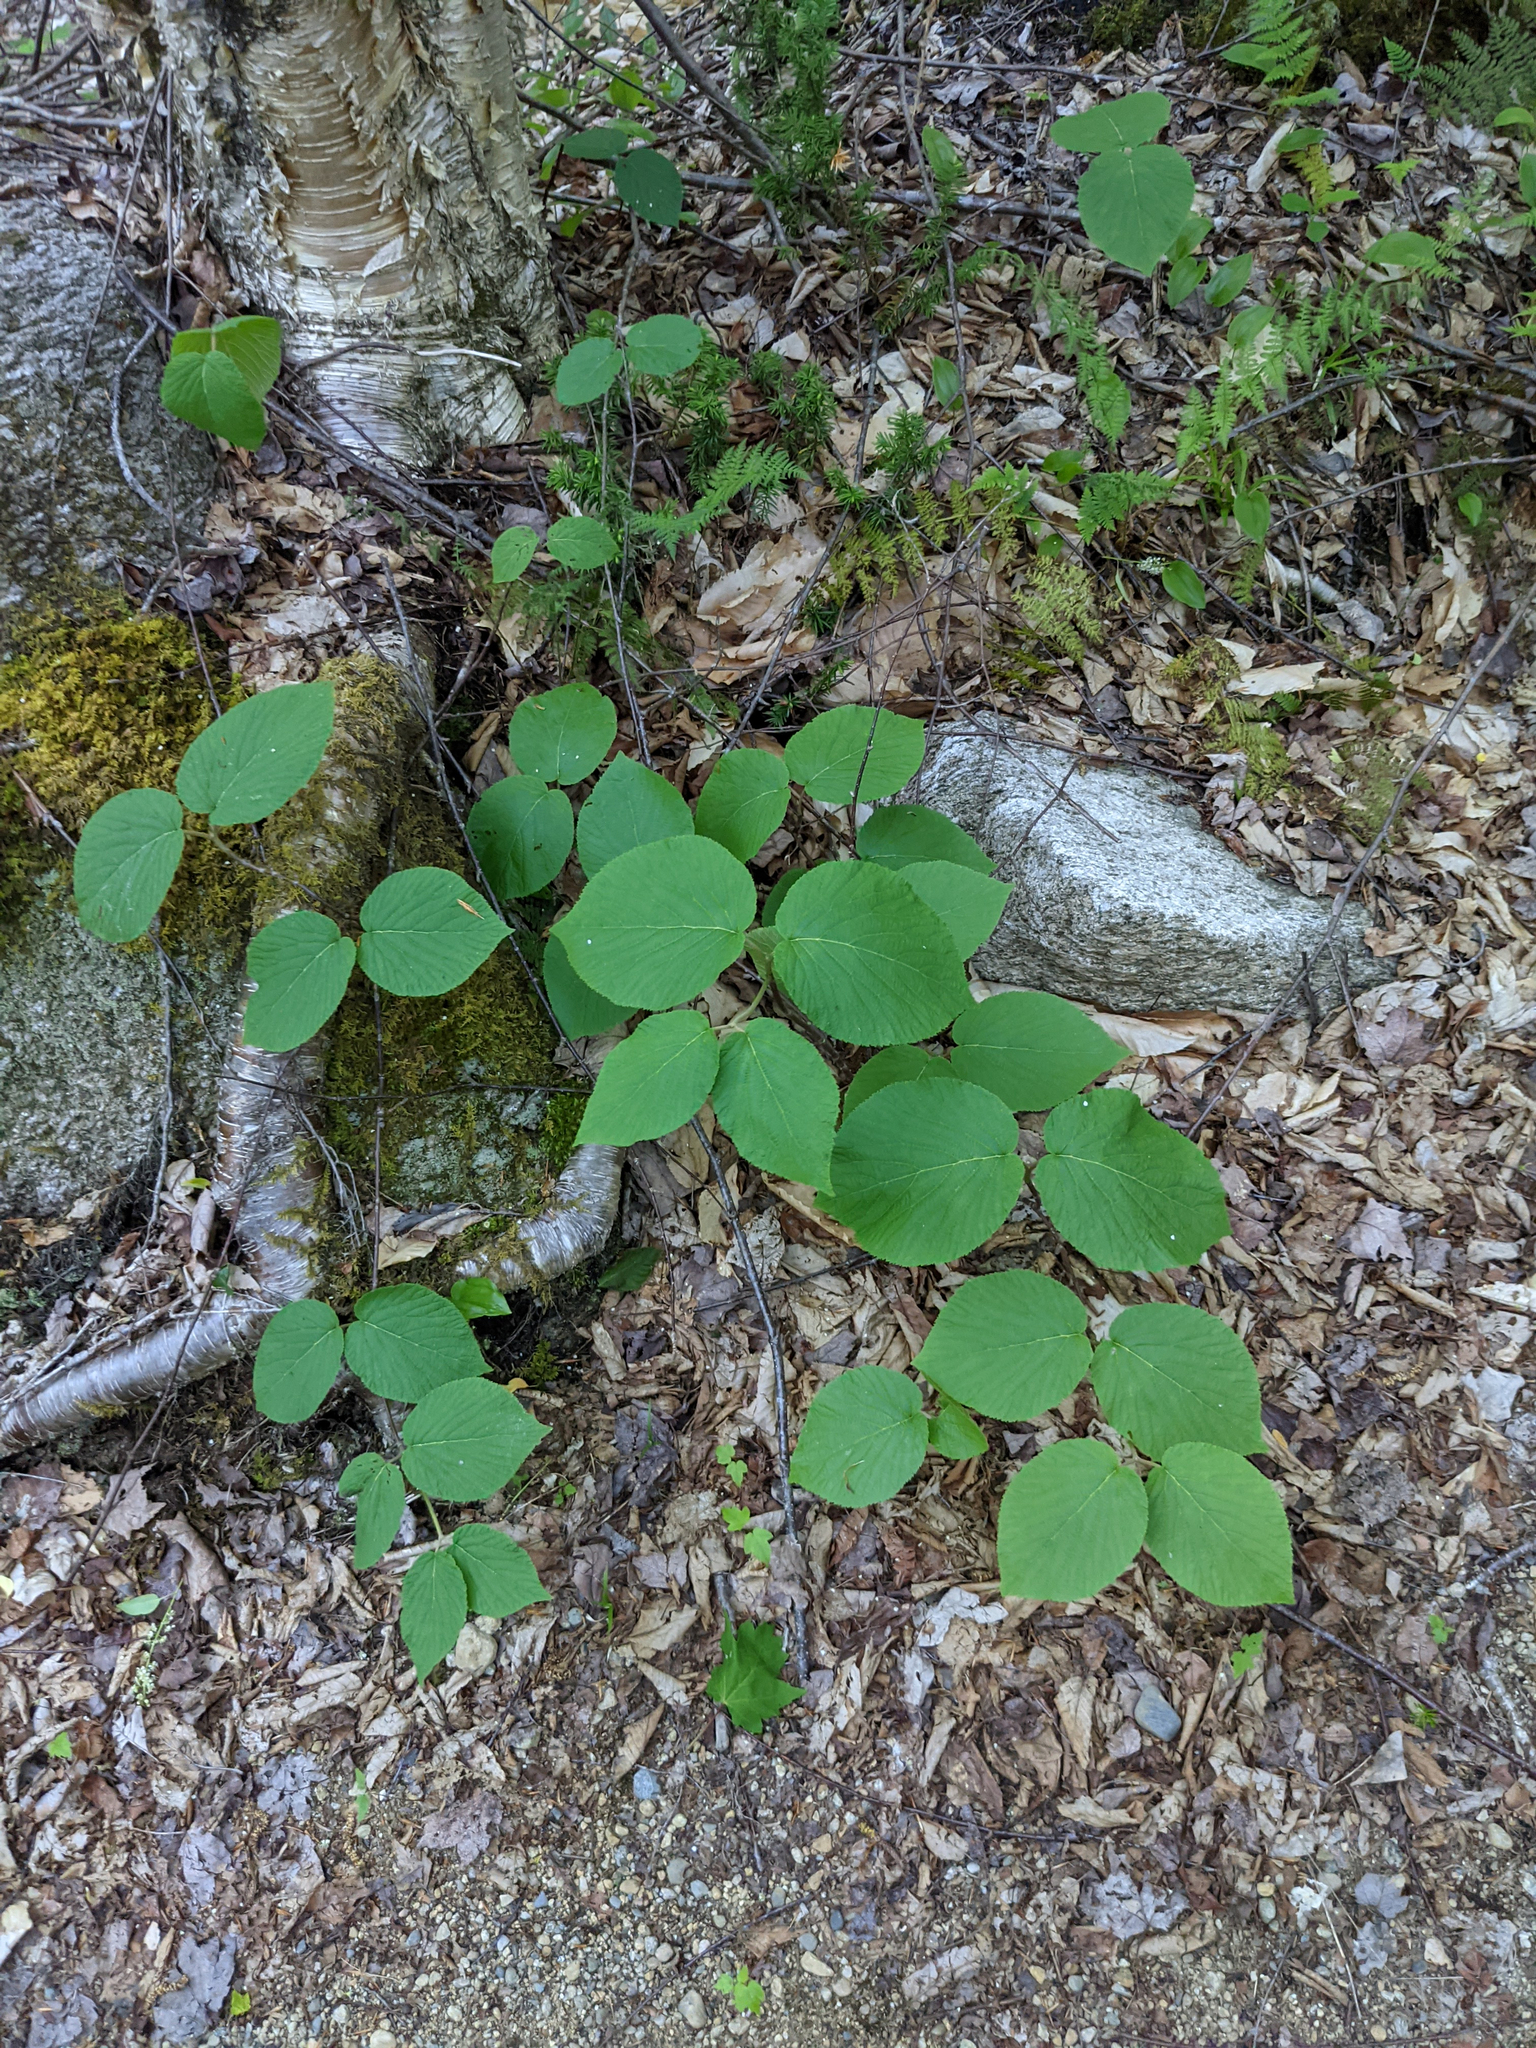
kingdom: Plantae
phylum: Tracheophyta
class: Magnoliopsida
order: Dipsacales
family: Viburnaceae
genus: Viburnum
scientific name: Viburnum lantanoides
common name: Hobblebush
